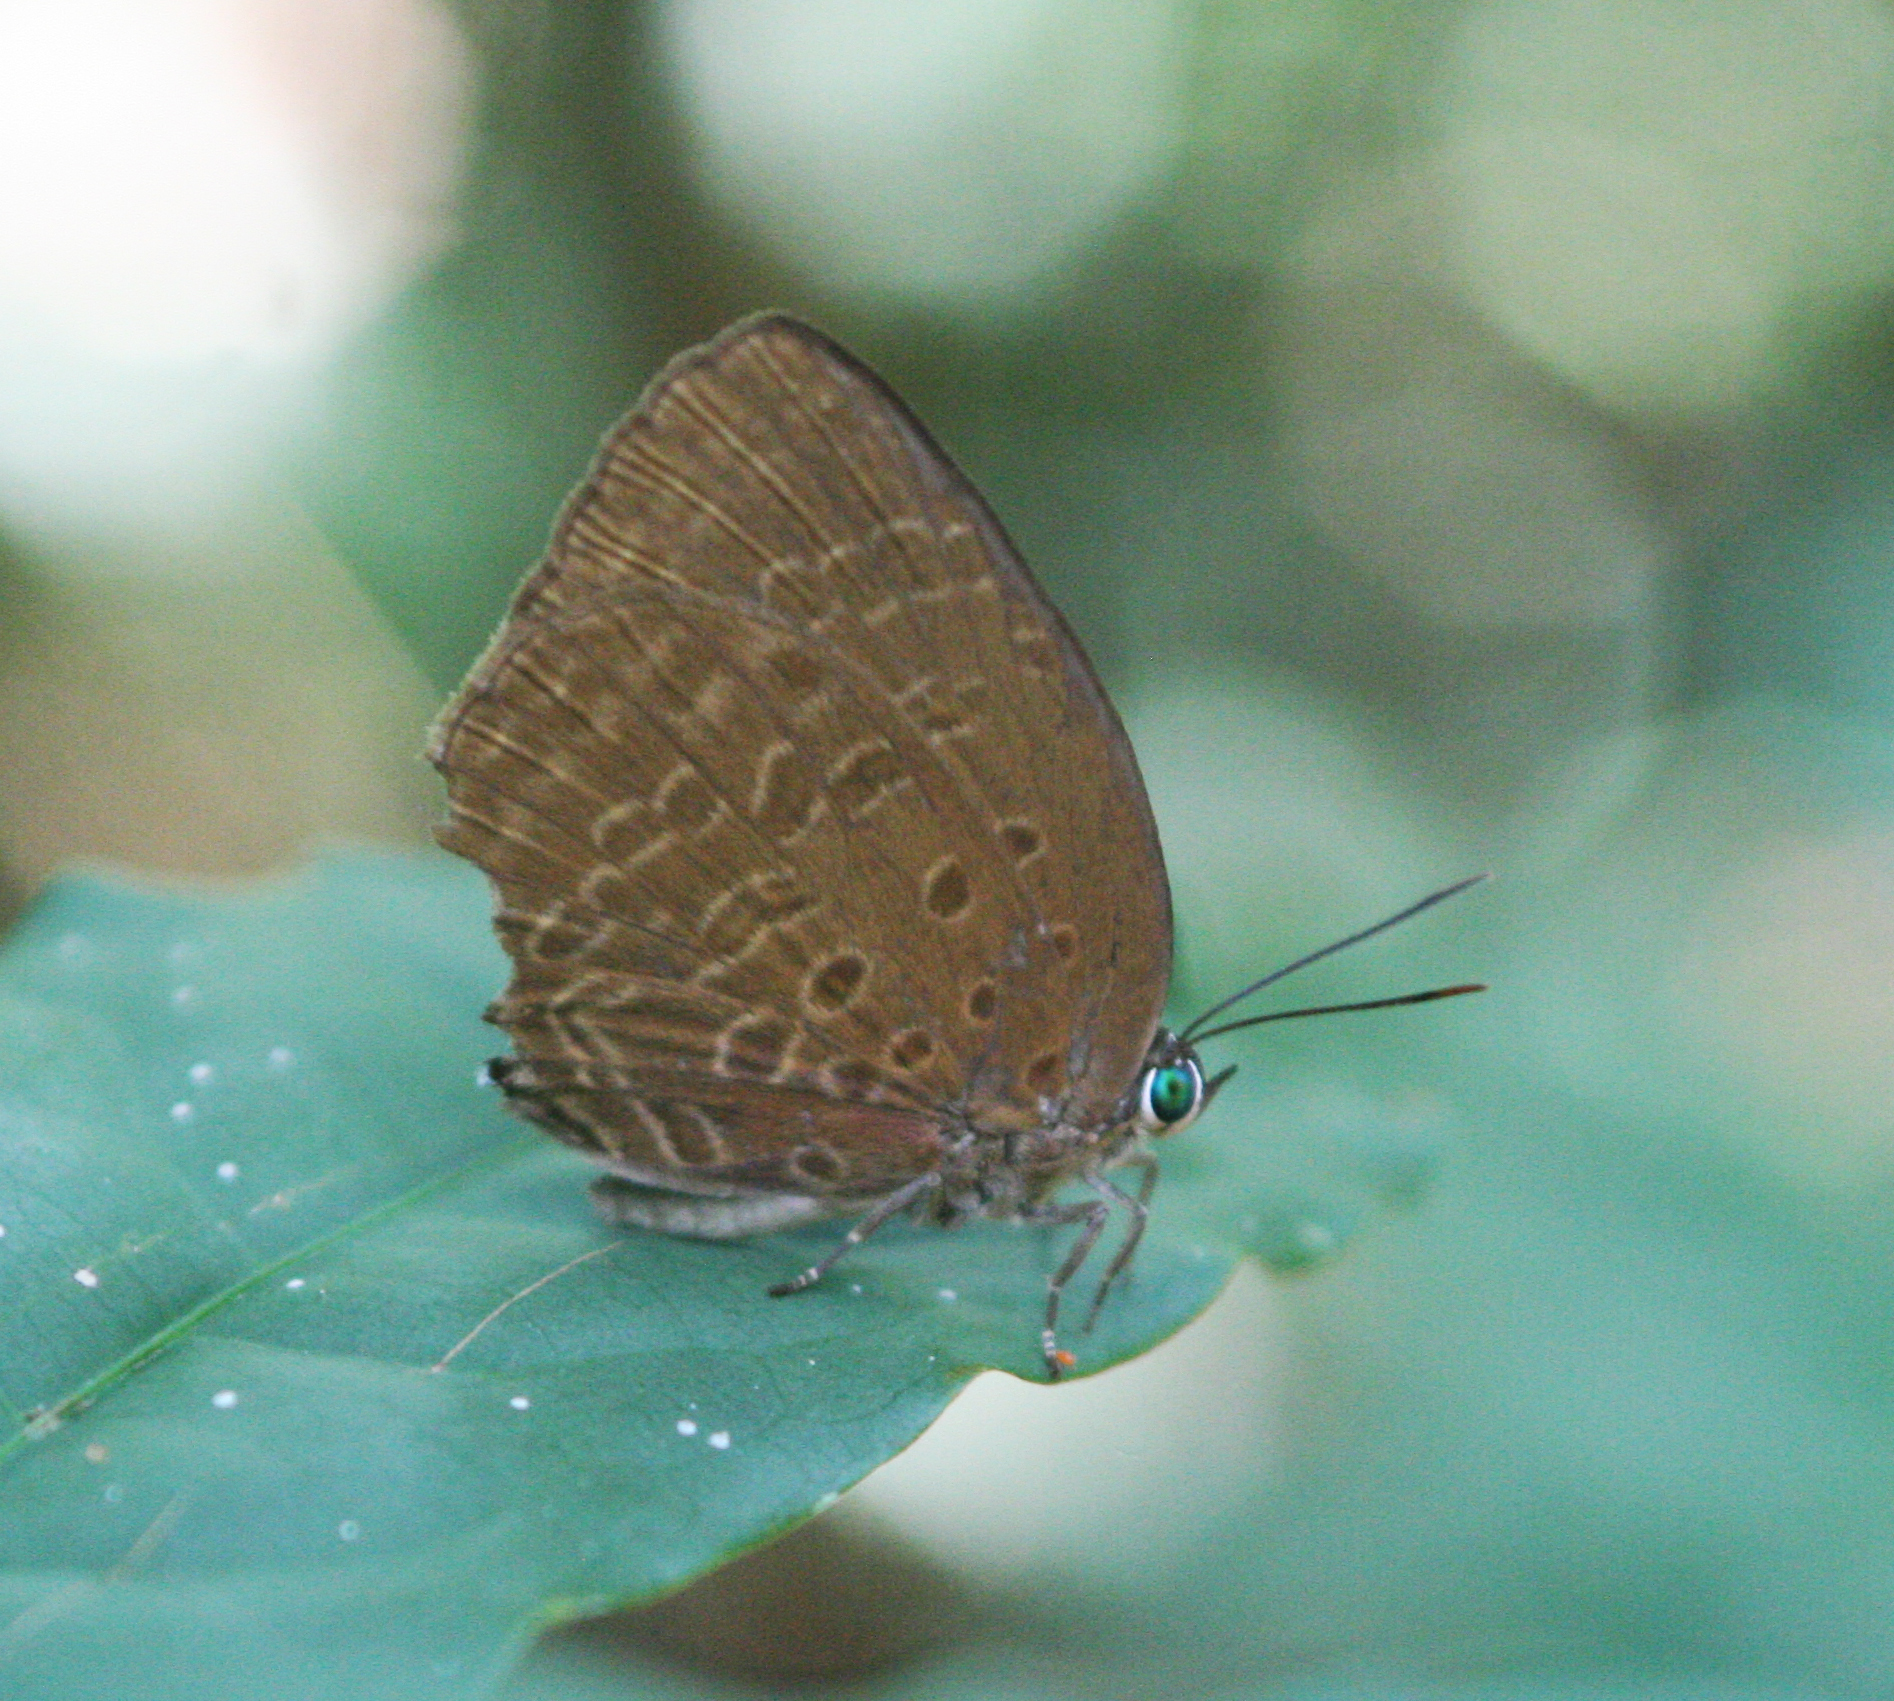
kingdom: Animalia
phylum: Arthropoda
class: Insecta
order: Lepidoptera
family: Lycaenidae
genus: Arhopala
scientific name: Arhopala atosia
